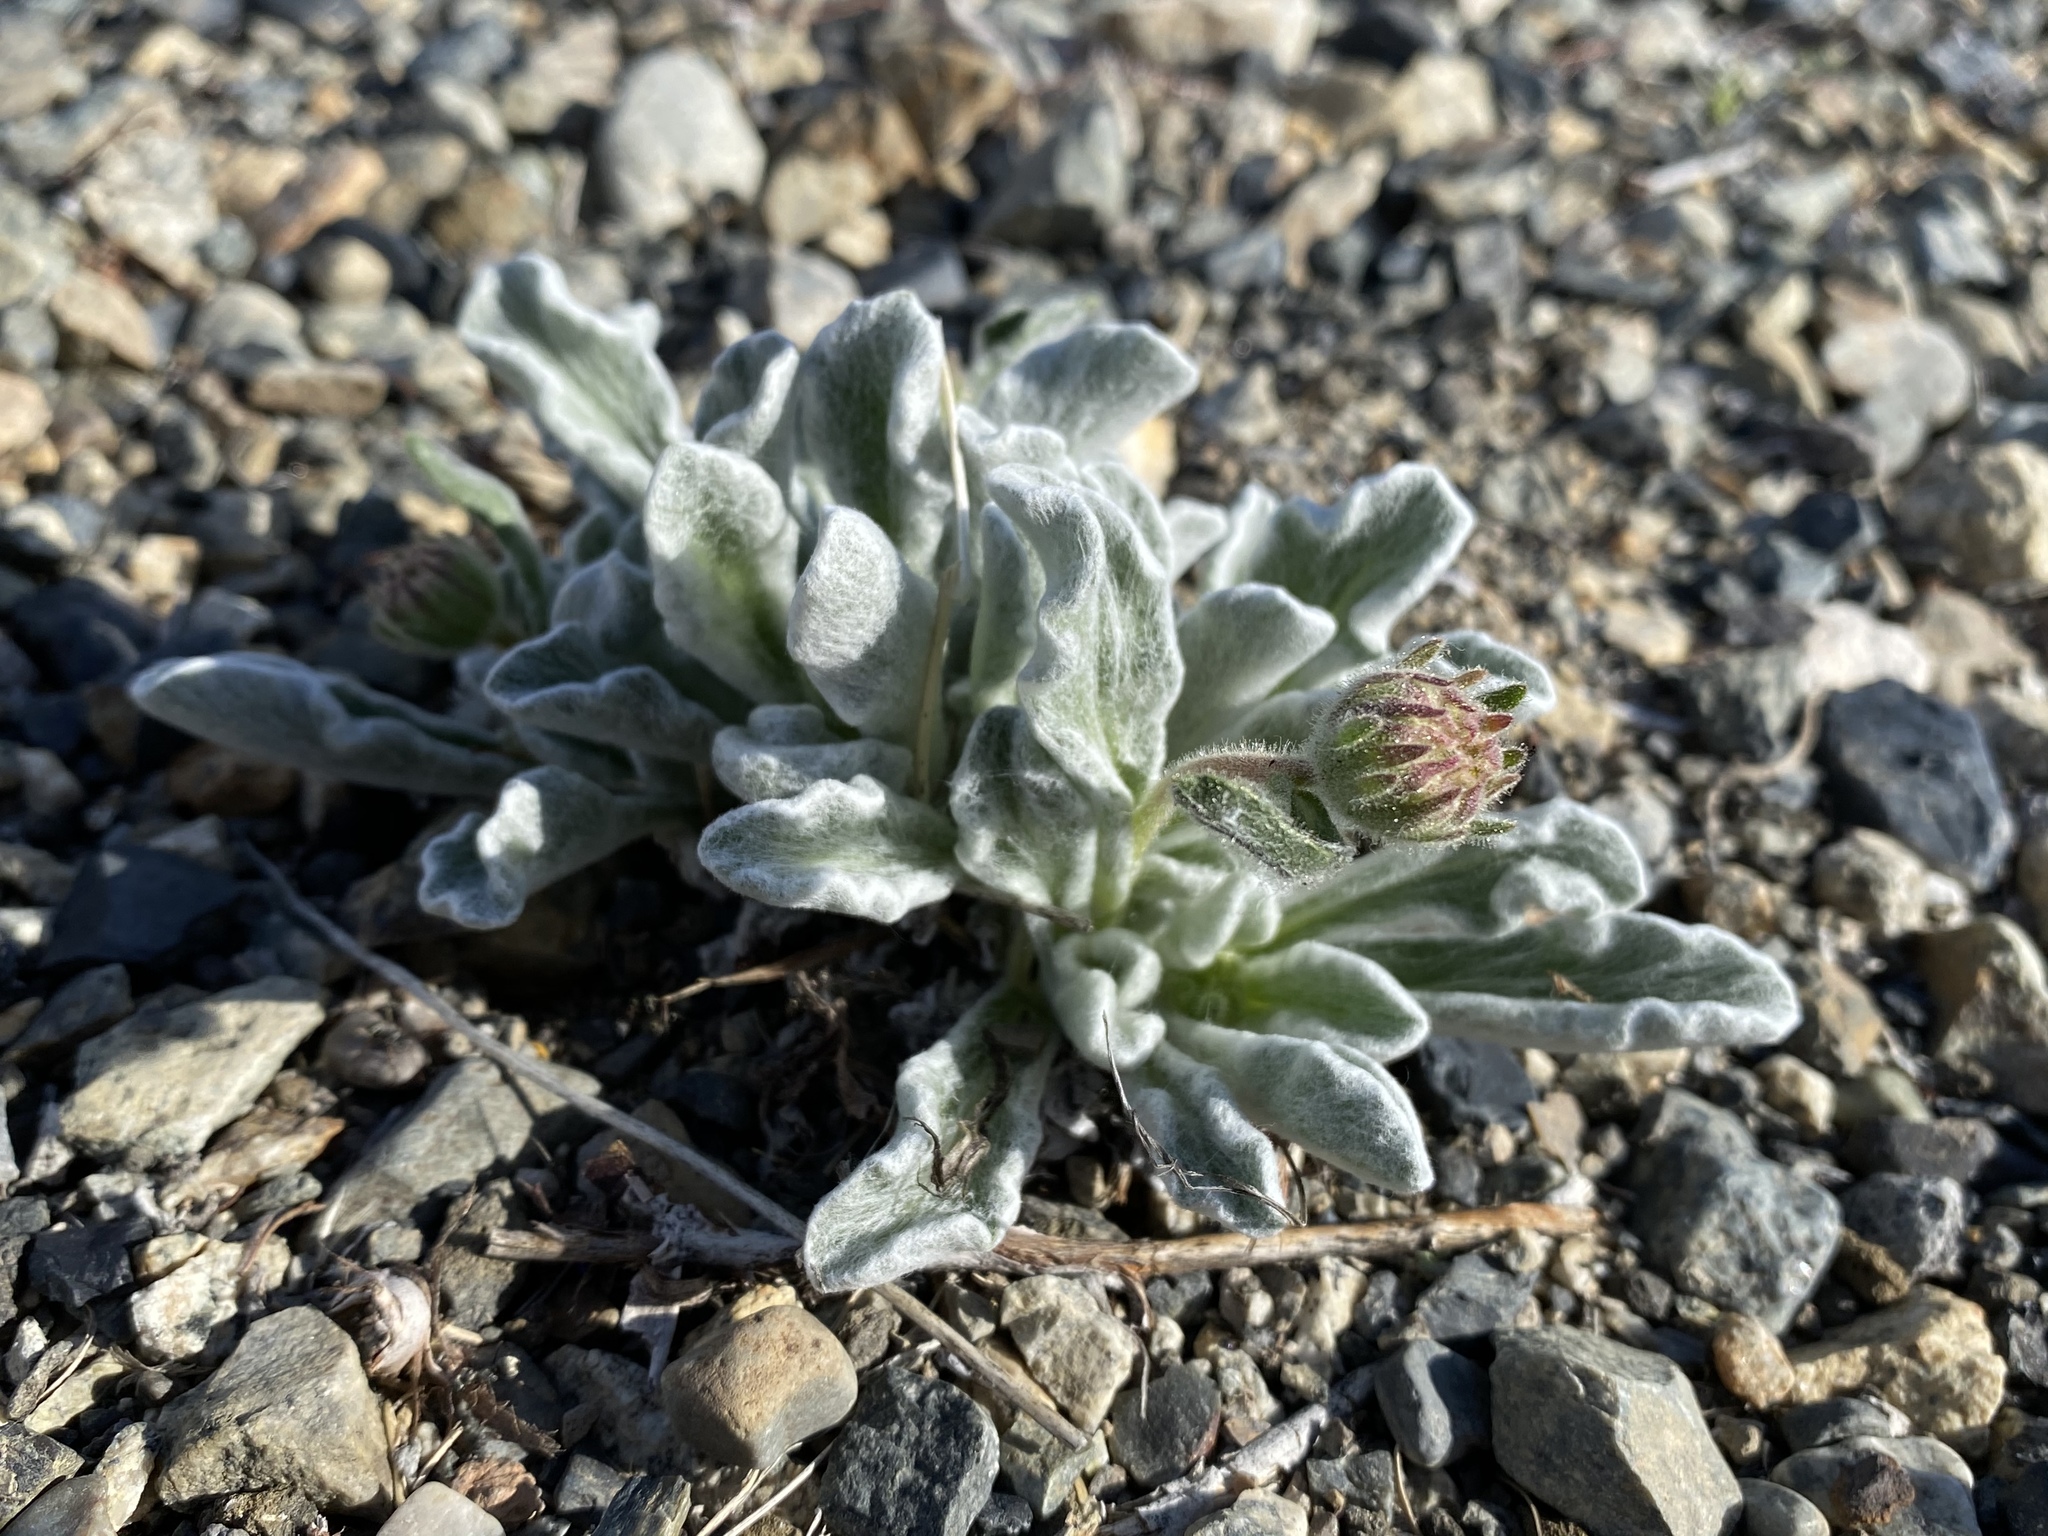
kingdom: Plantae
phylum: Tracheophyta
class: Magnoliopsida
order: Asterales
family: Asteraceae
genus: Hulsea
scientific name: Hulsea vestita
